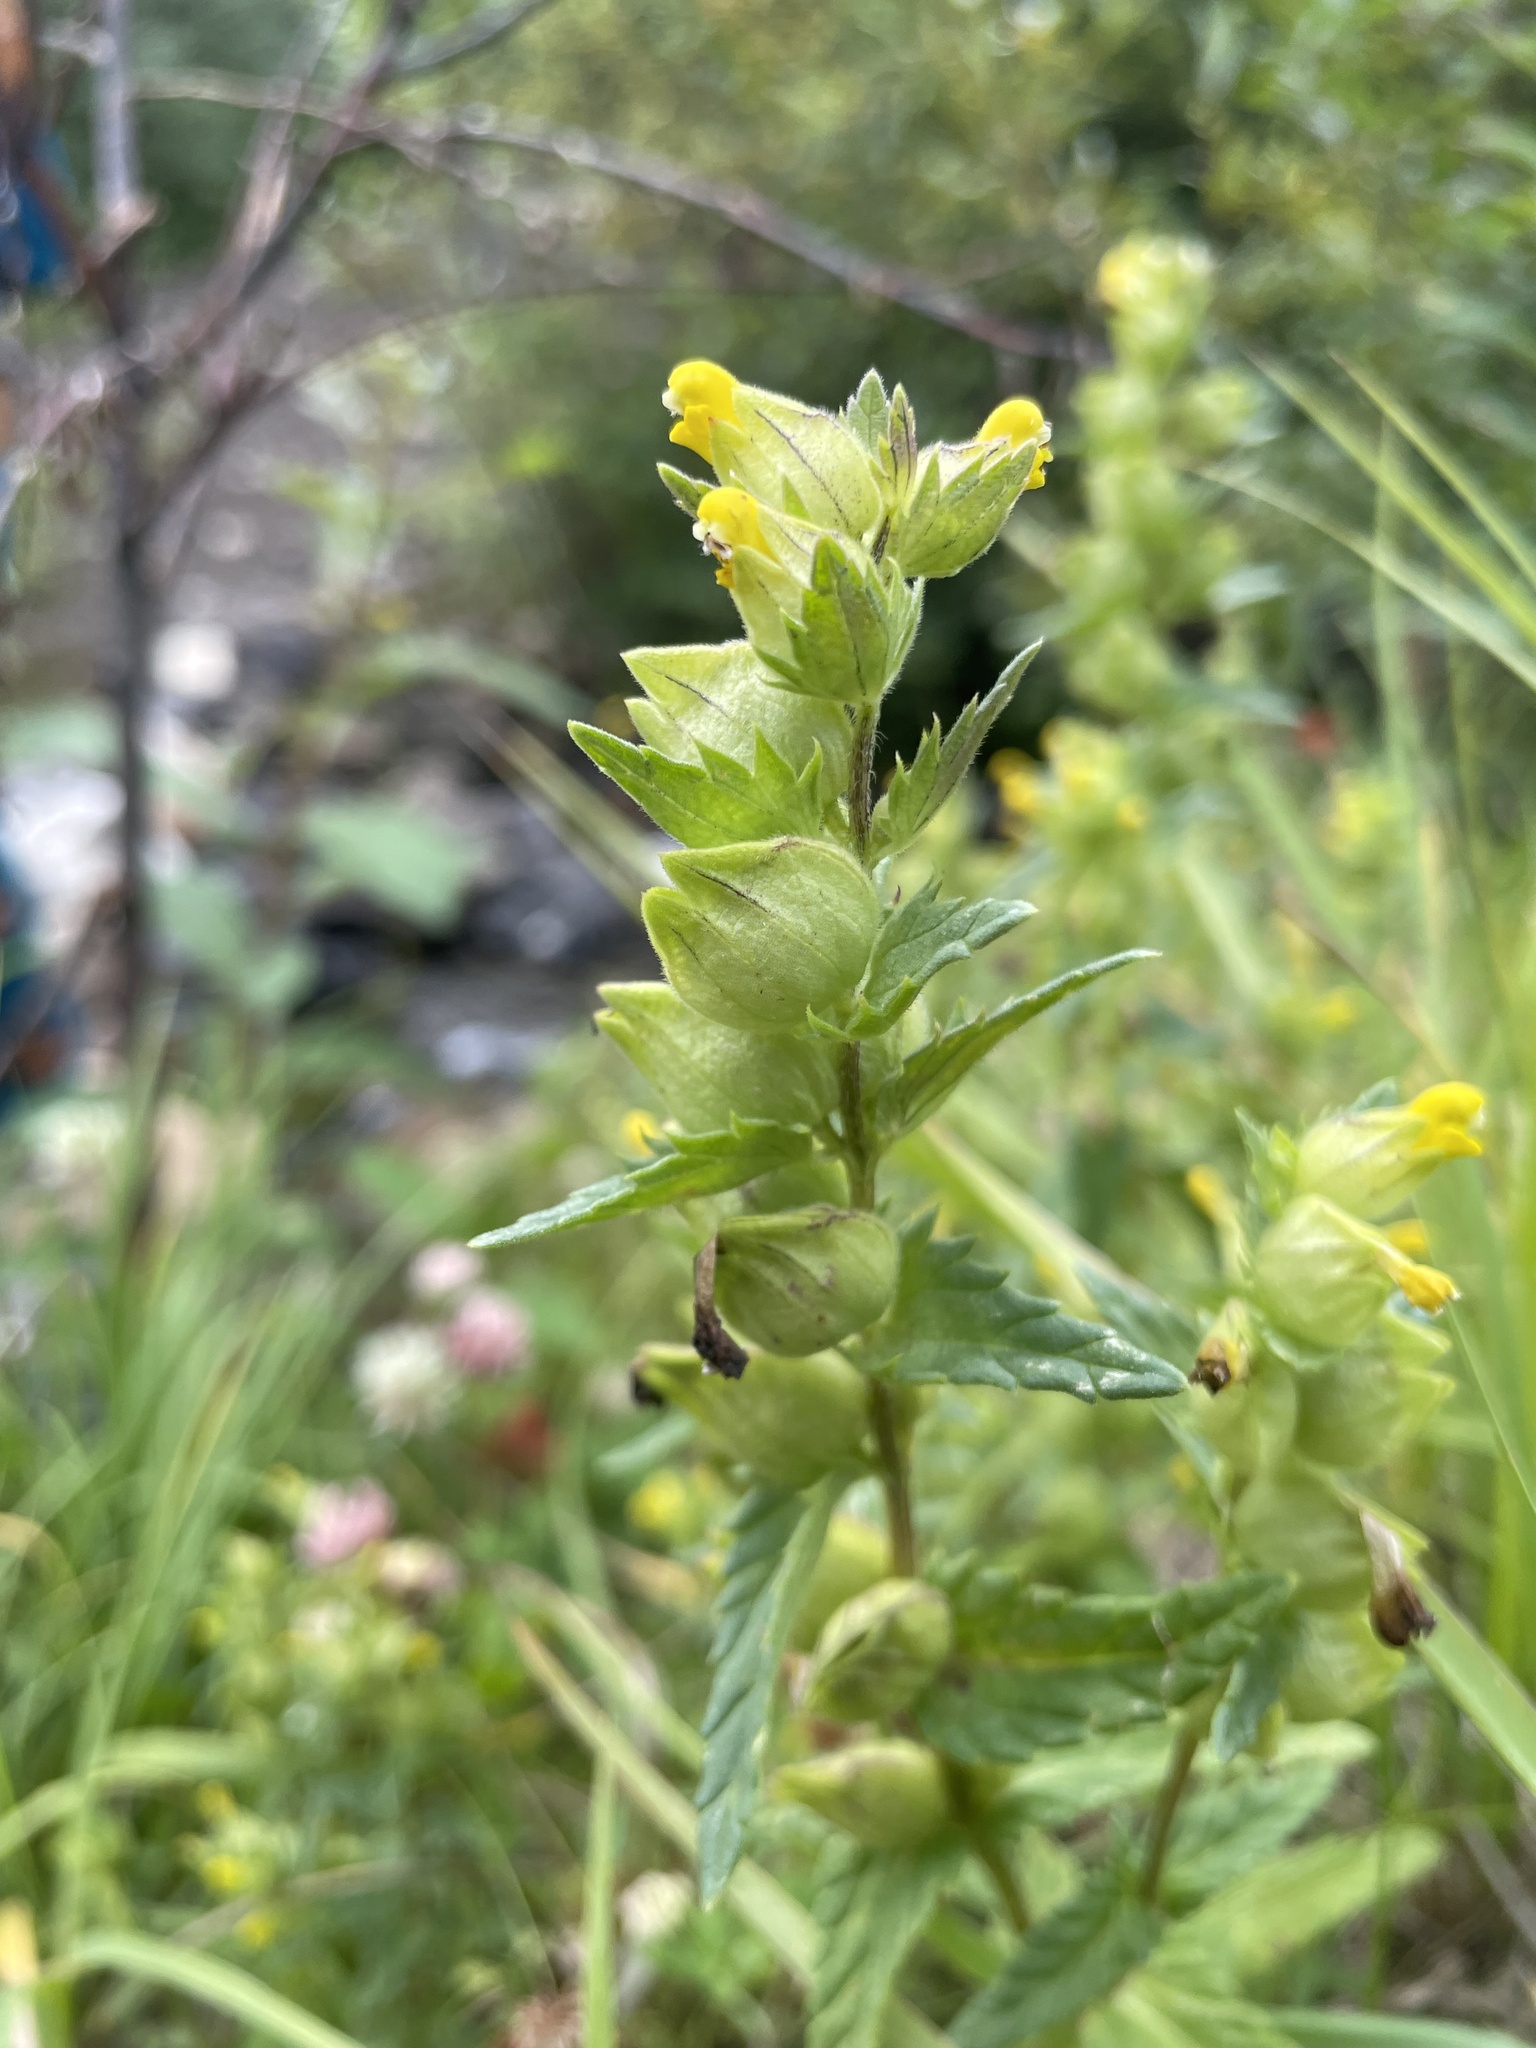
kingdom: Plantae
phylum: Tracheophyta
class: Magnoliopsida
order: Lamiales
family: Orobanchaceae
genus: Rhinanthus
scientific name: Rhinanthus groenlandicus
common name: Little yellow rattle
